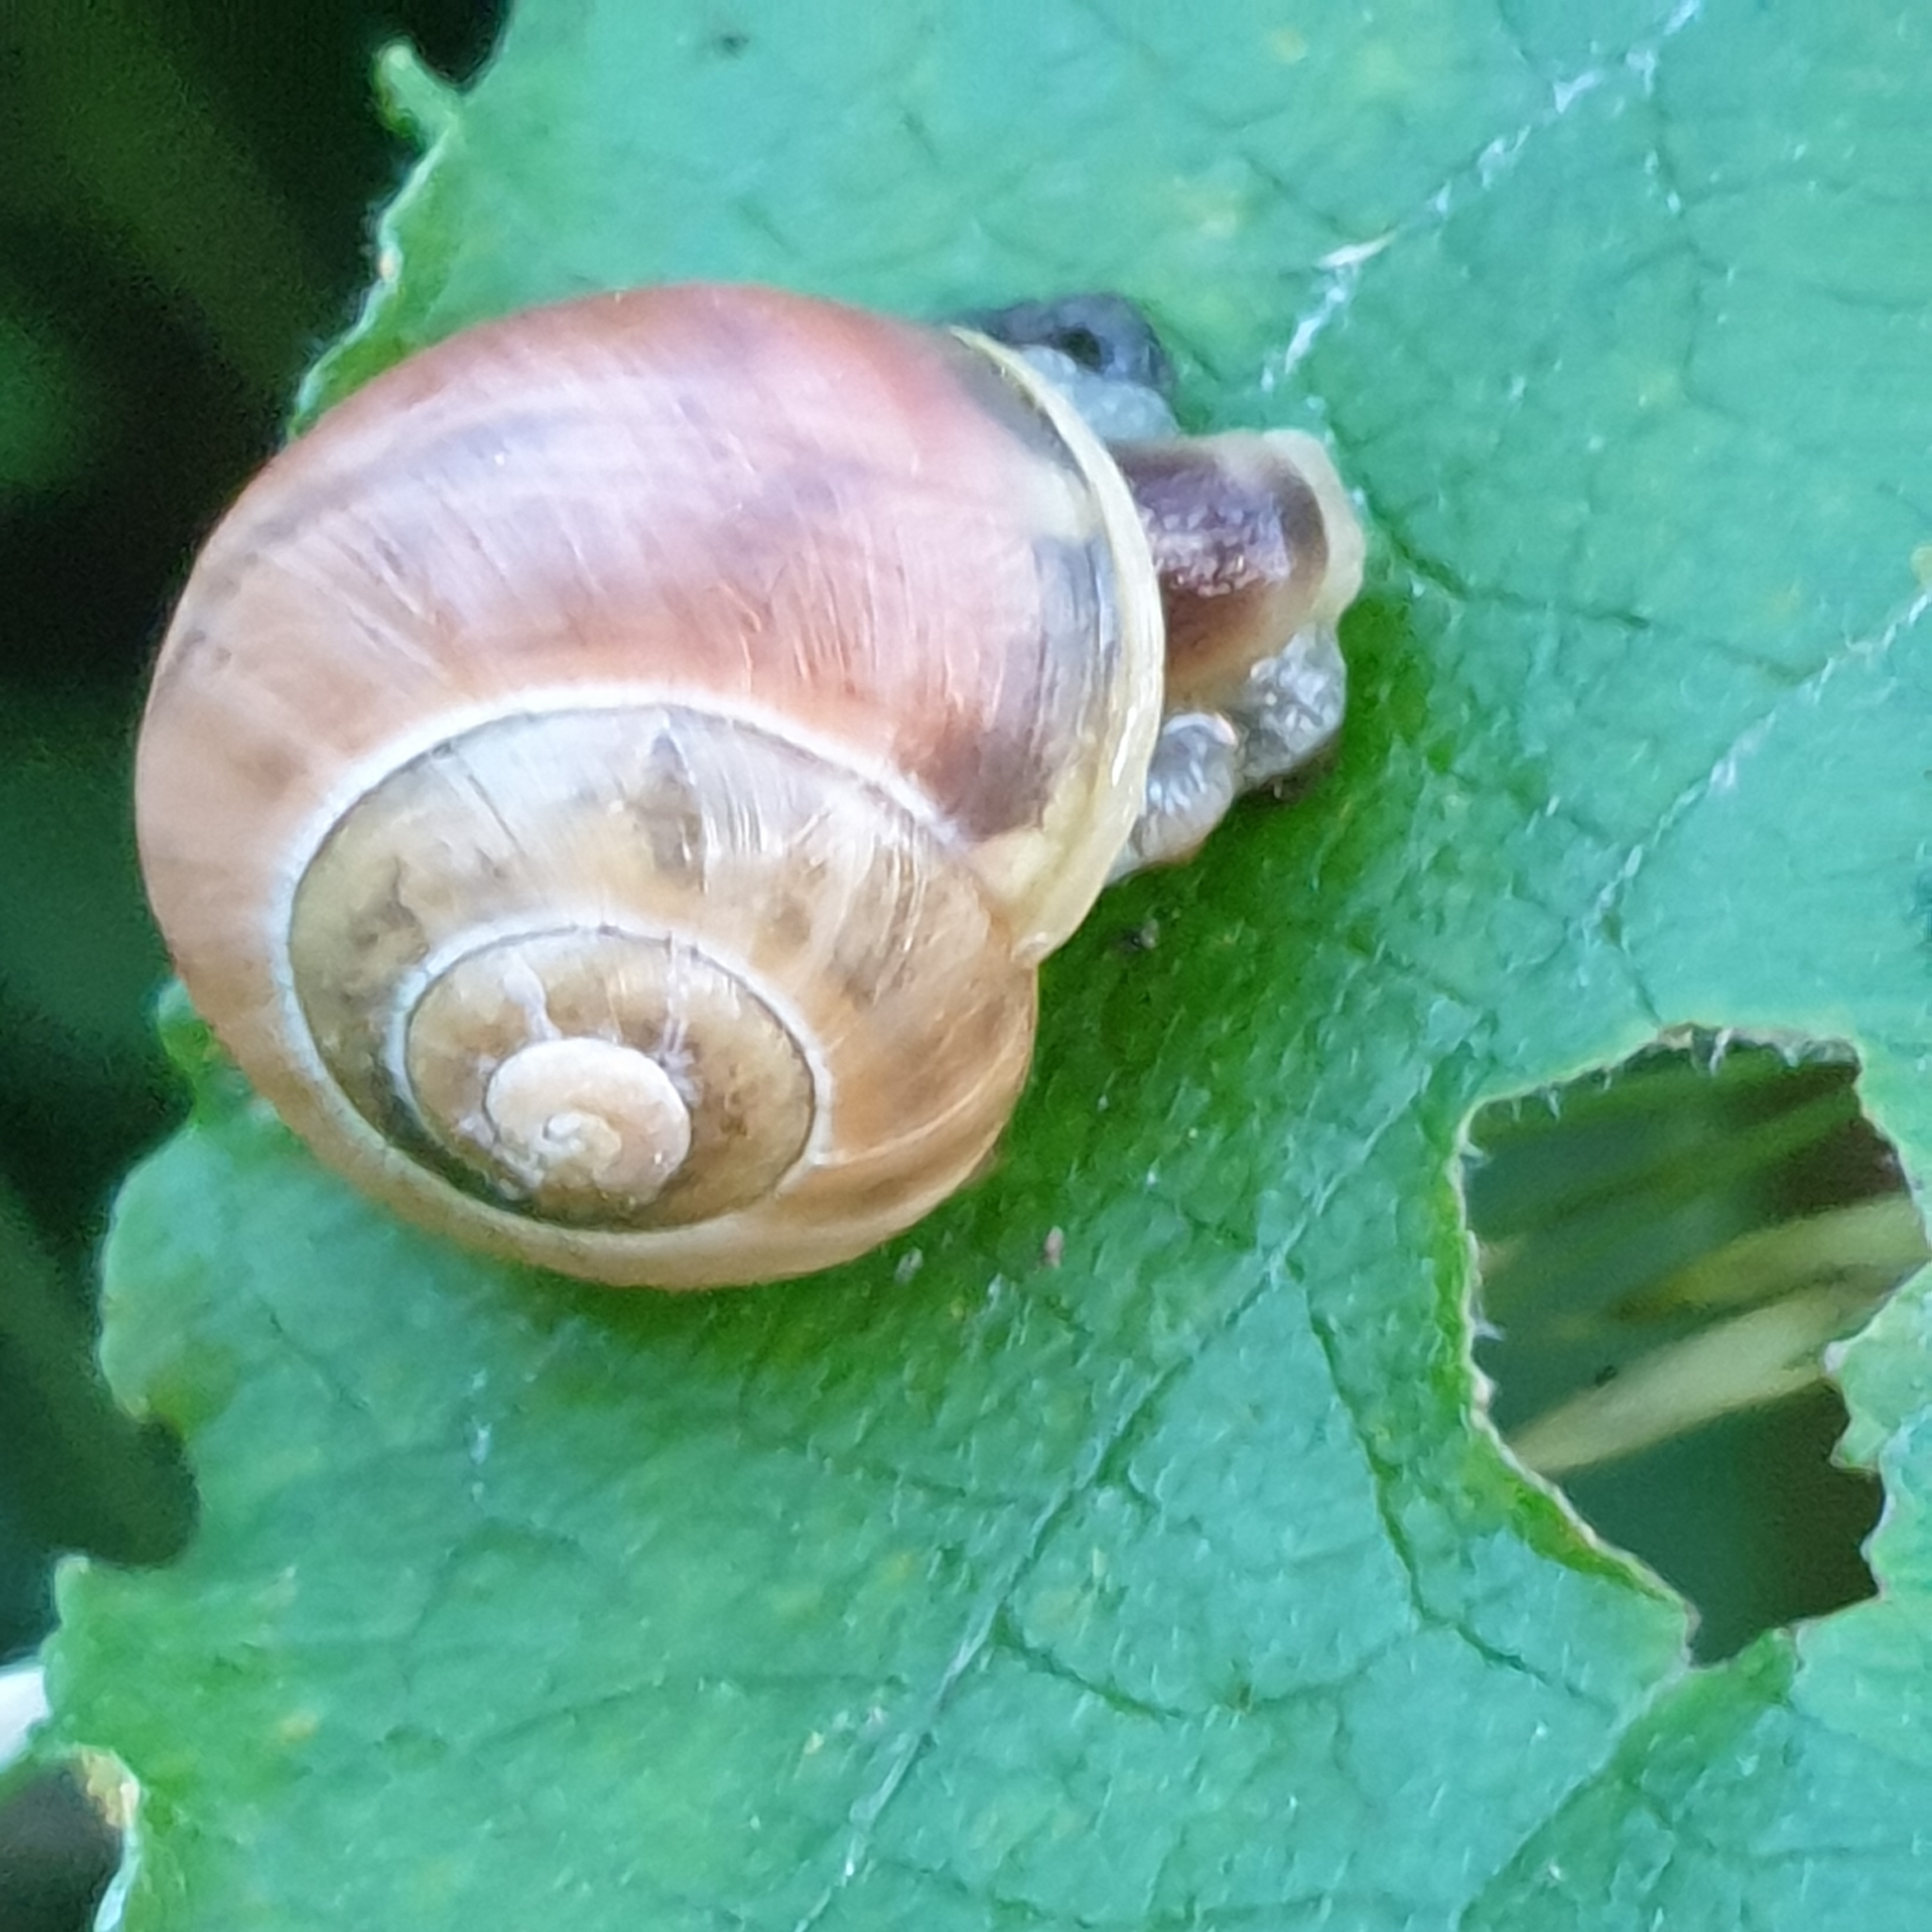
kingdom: Animalia
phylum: Mollusca
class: Gastropoda
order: Stylommatophora
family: Helicidae
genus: Cepaea
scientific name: Cepaea
